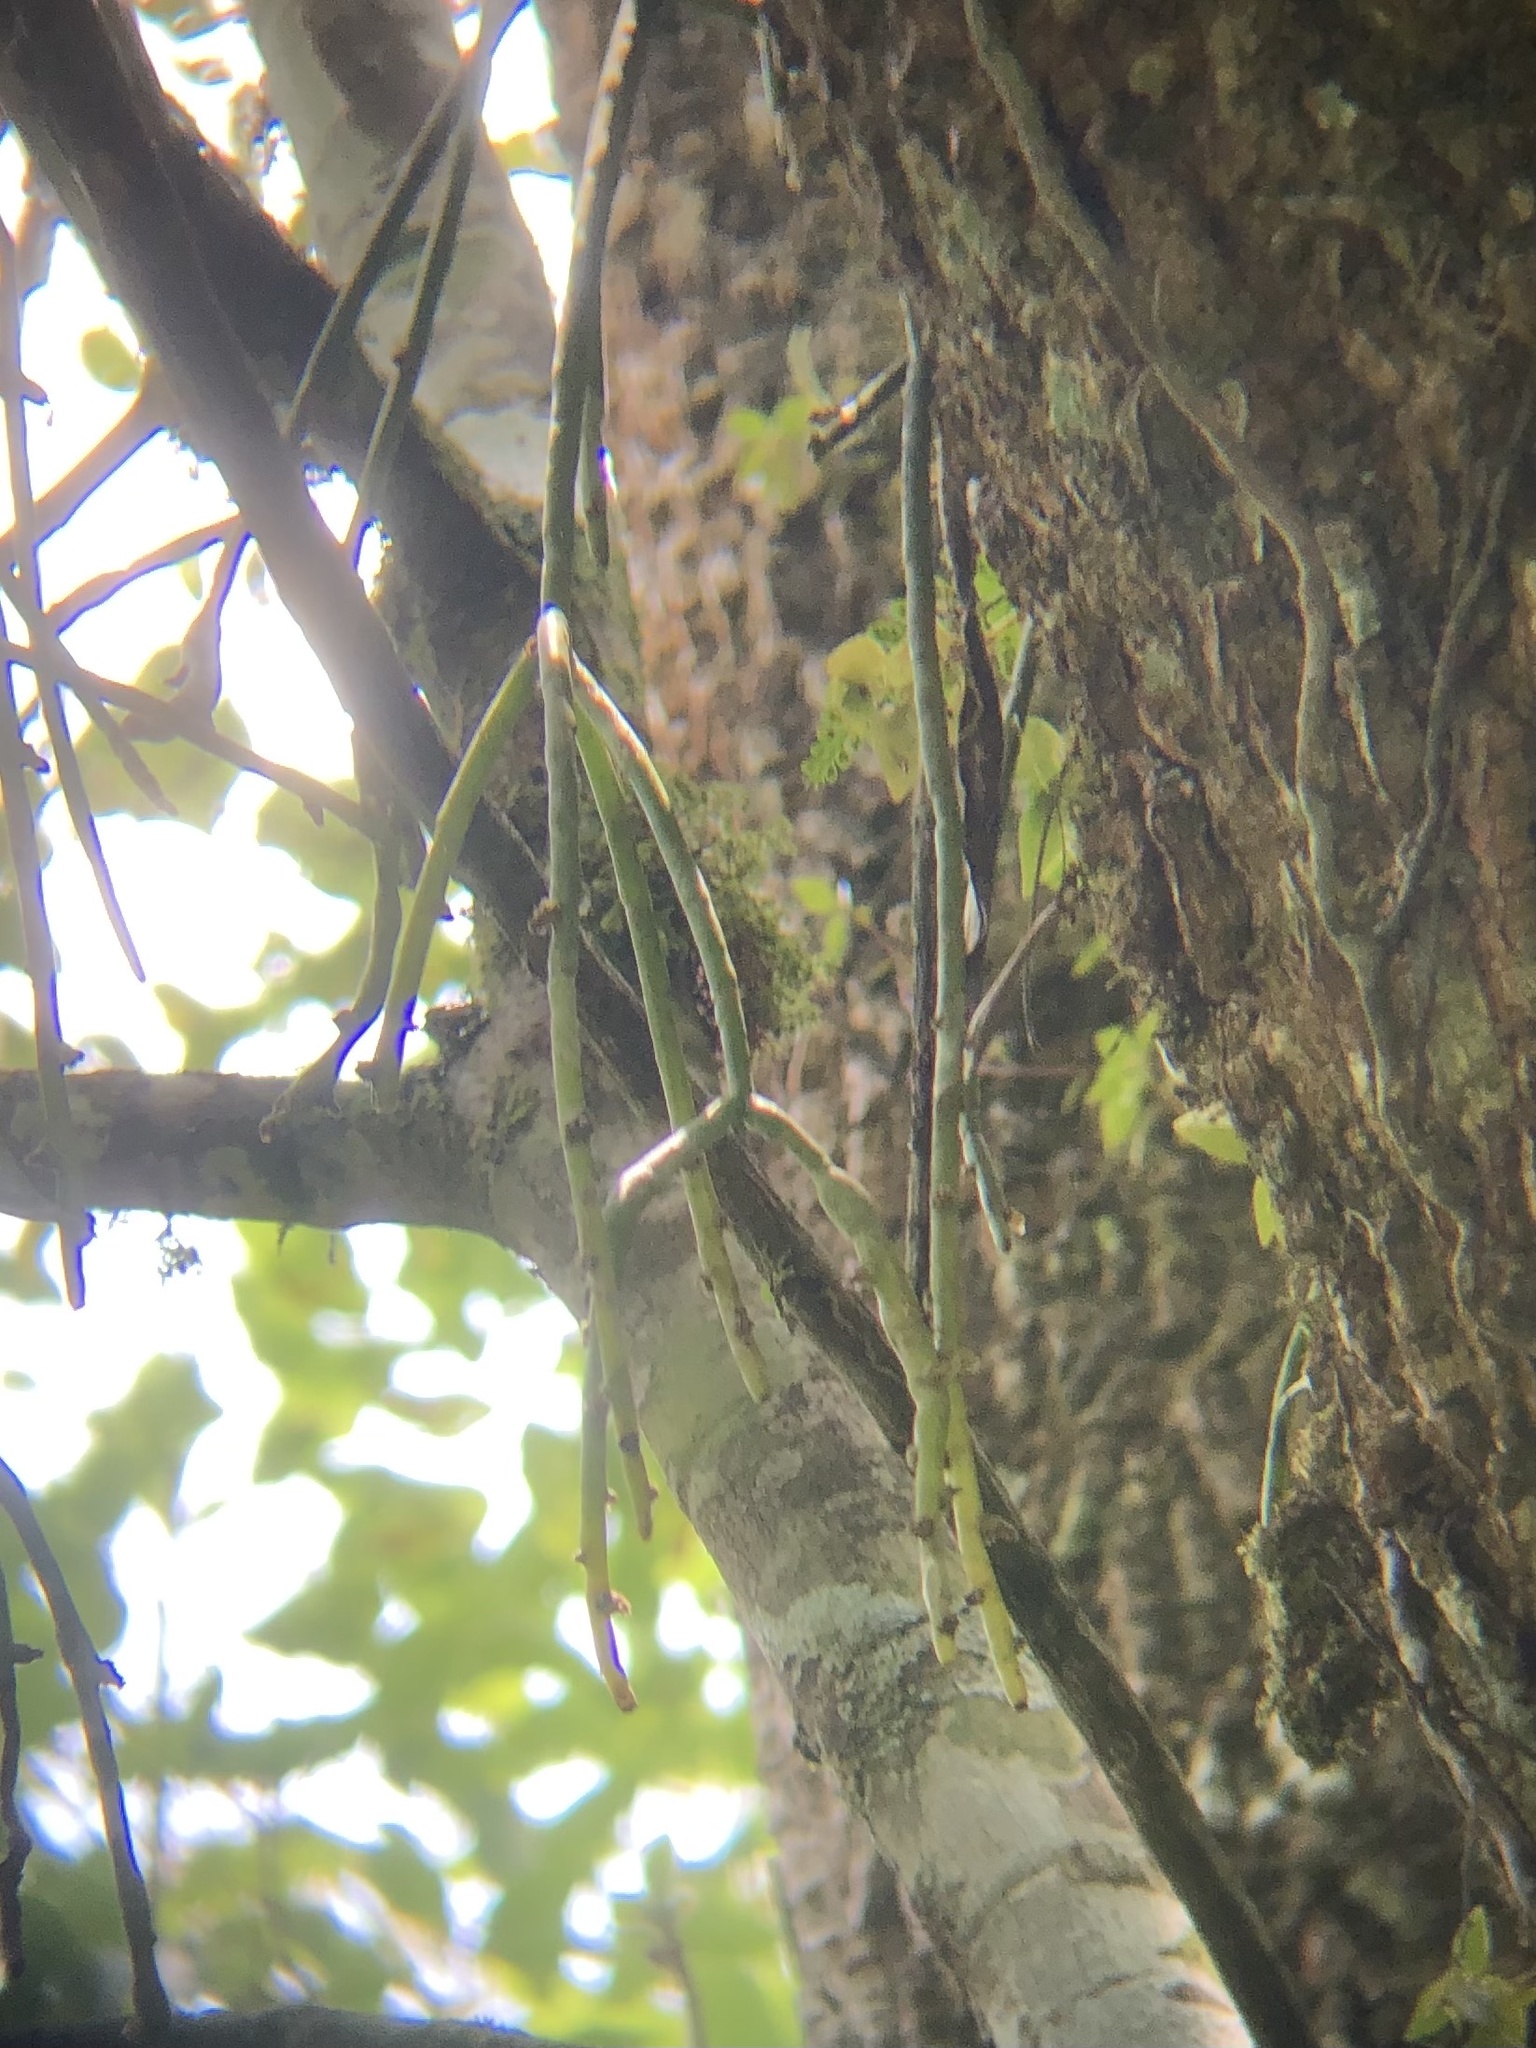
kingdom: Plantae
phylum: Tracheophyta
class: Magnoliopsida
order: Caryophyllales
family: Cactaceae
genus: Rhipsalis
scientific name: Rhipsalis baccifera
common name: Mistletoe cactus
